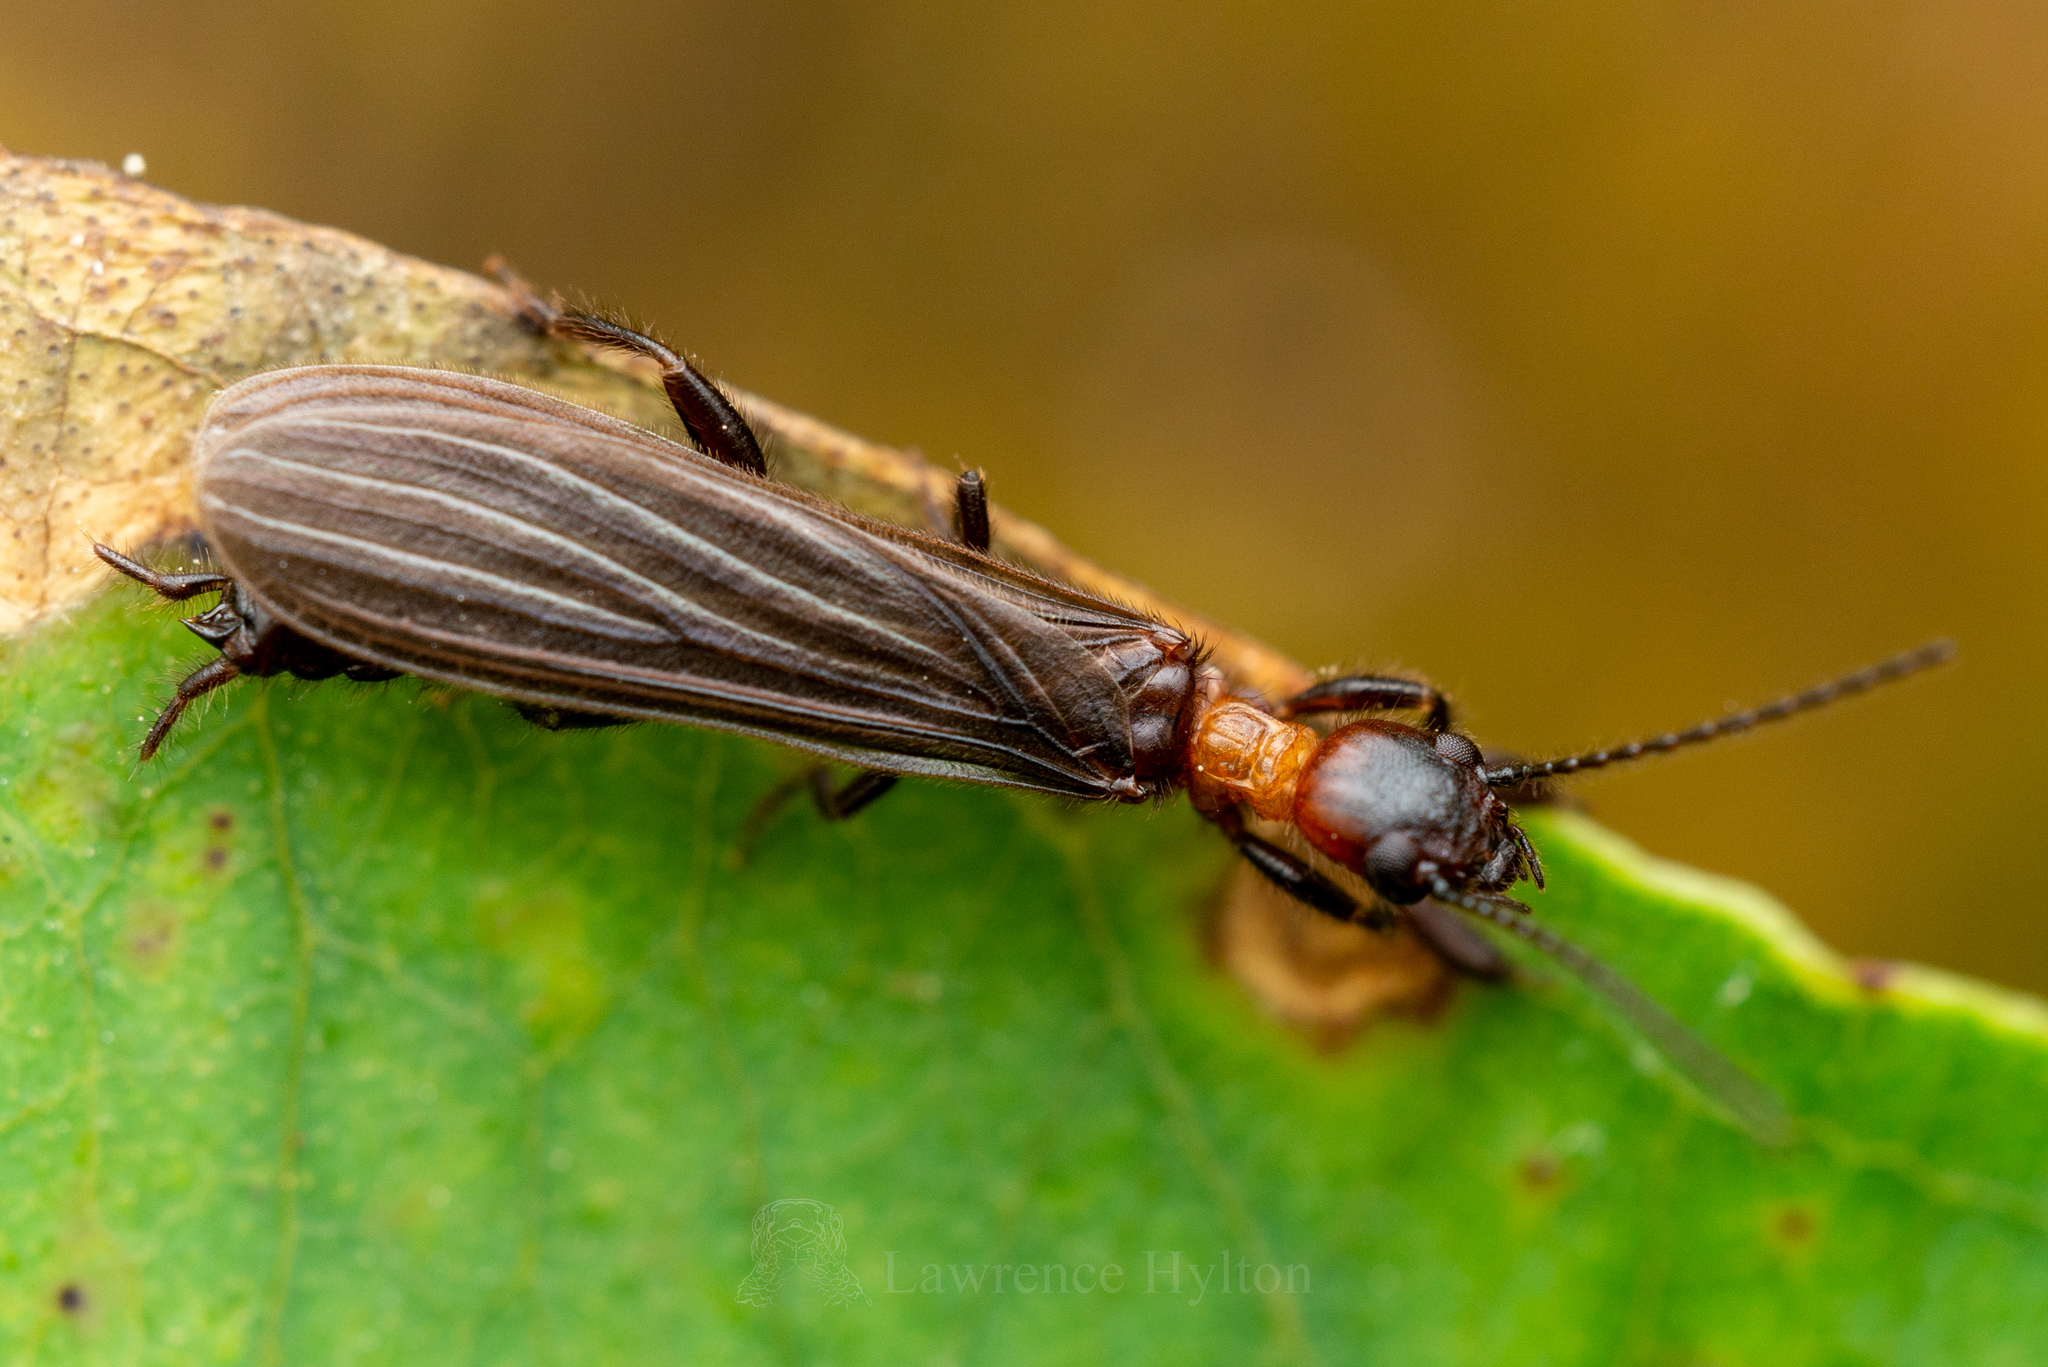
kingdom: Animalia
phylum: Arthropoda
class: Insecta
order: Embioptera
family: Oligotomidae
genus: Aposthonia
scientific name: Aposthonia borneensis
